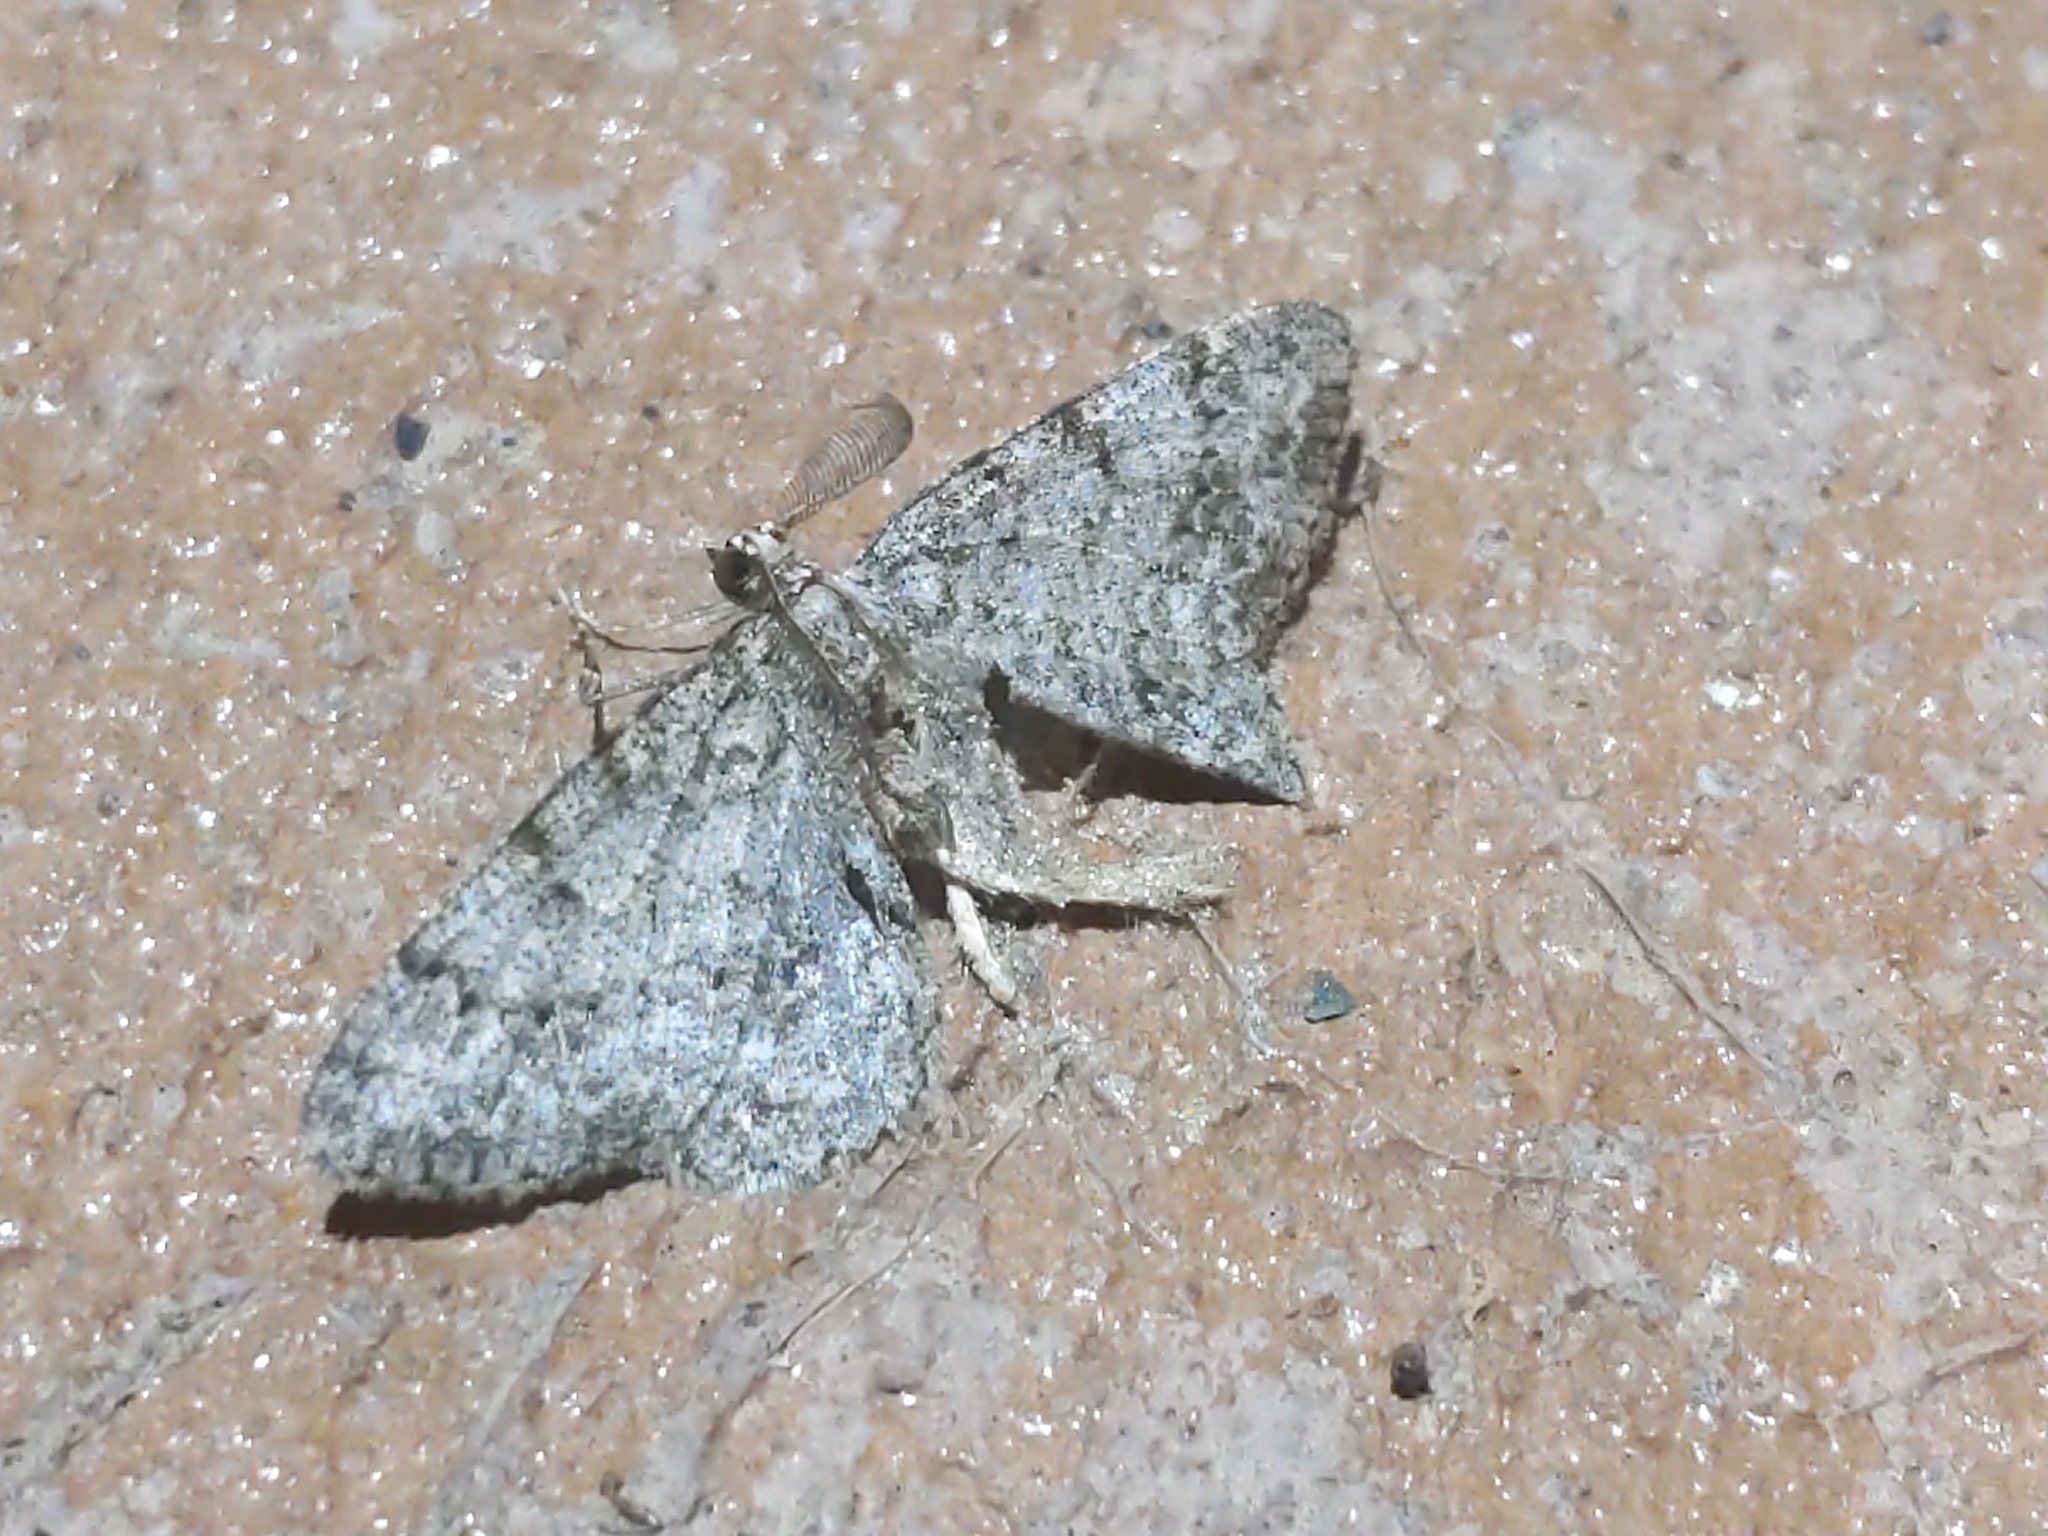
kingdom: Animalia
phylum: Arthropoda
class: Insecta
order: Lepidoptera
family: Geometridae
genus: Protoboarmia
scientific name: Protoboarmia porcelaria
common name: Porcelain gray
